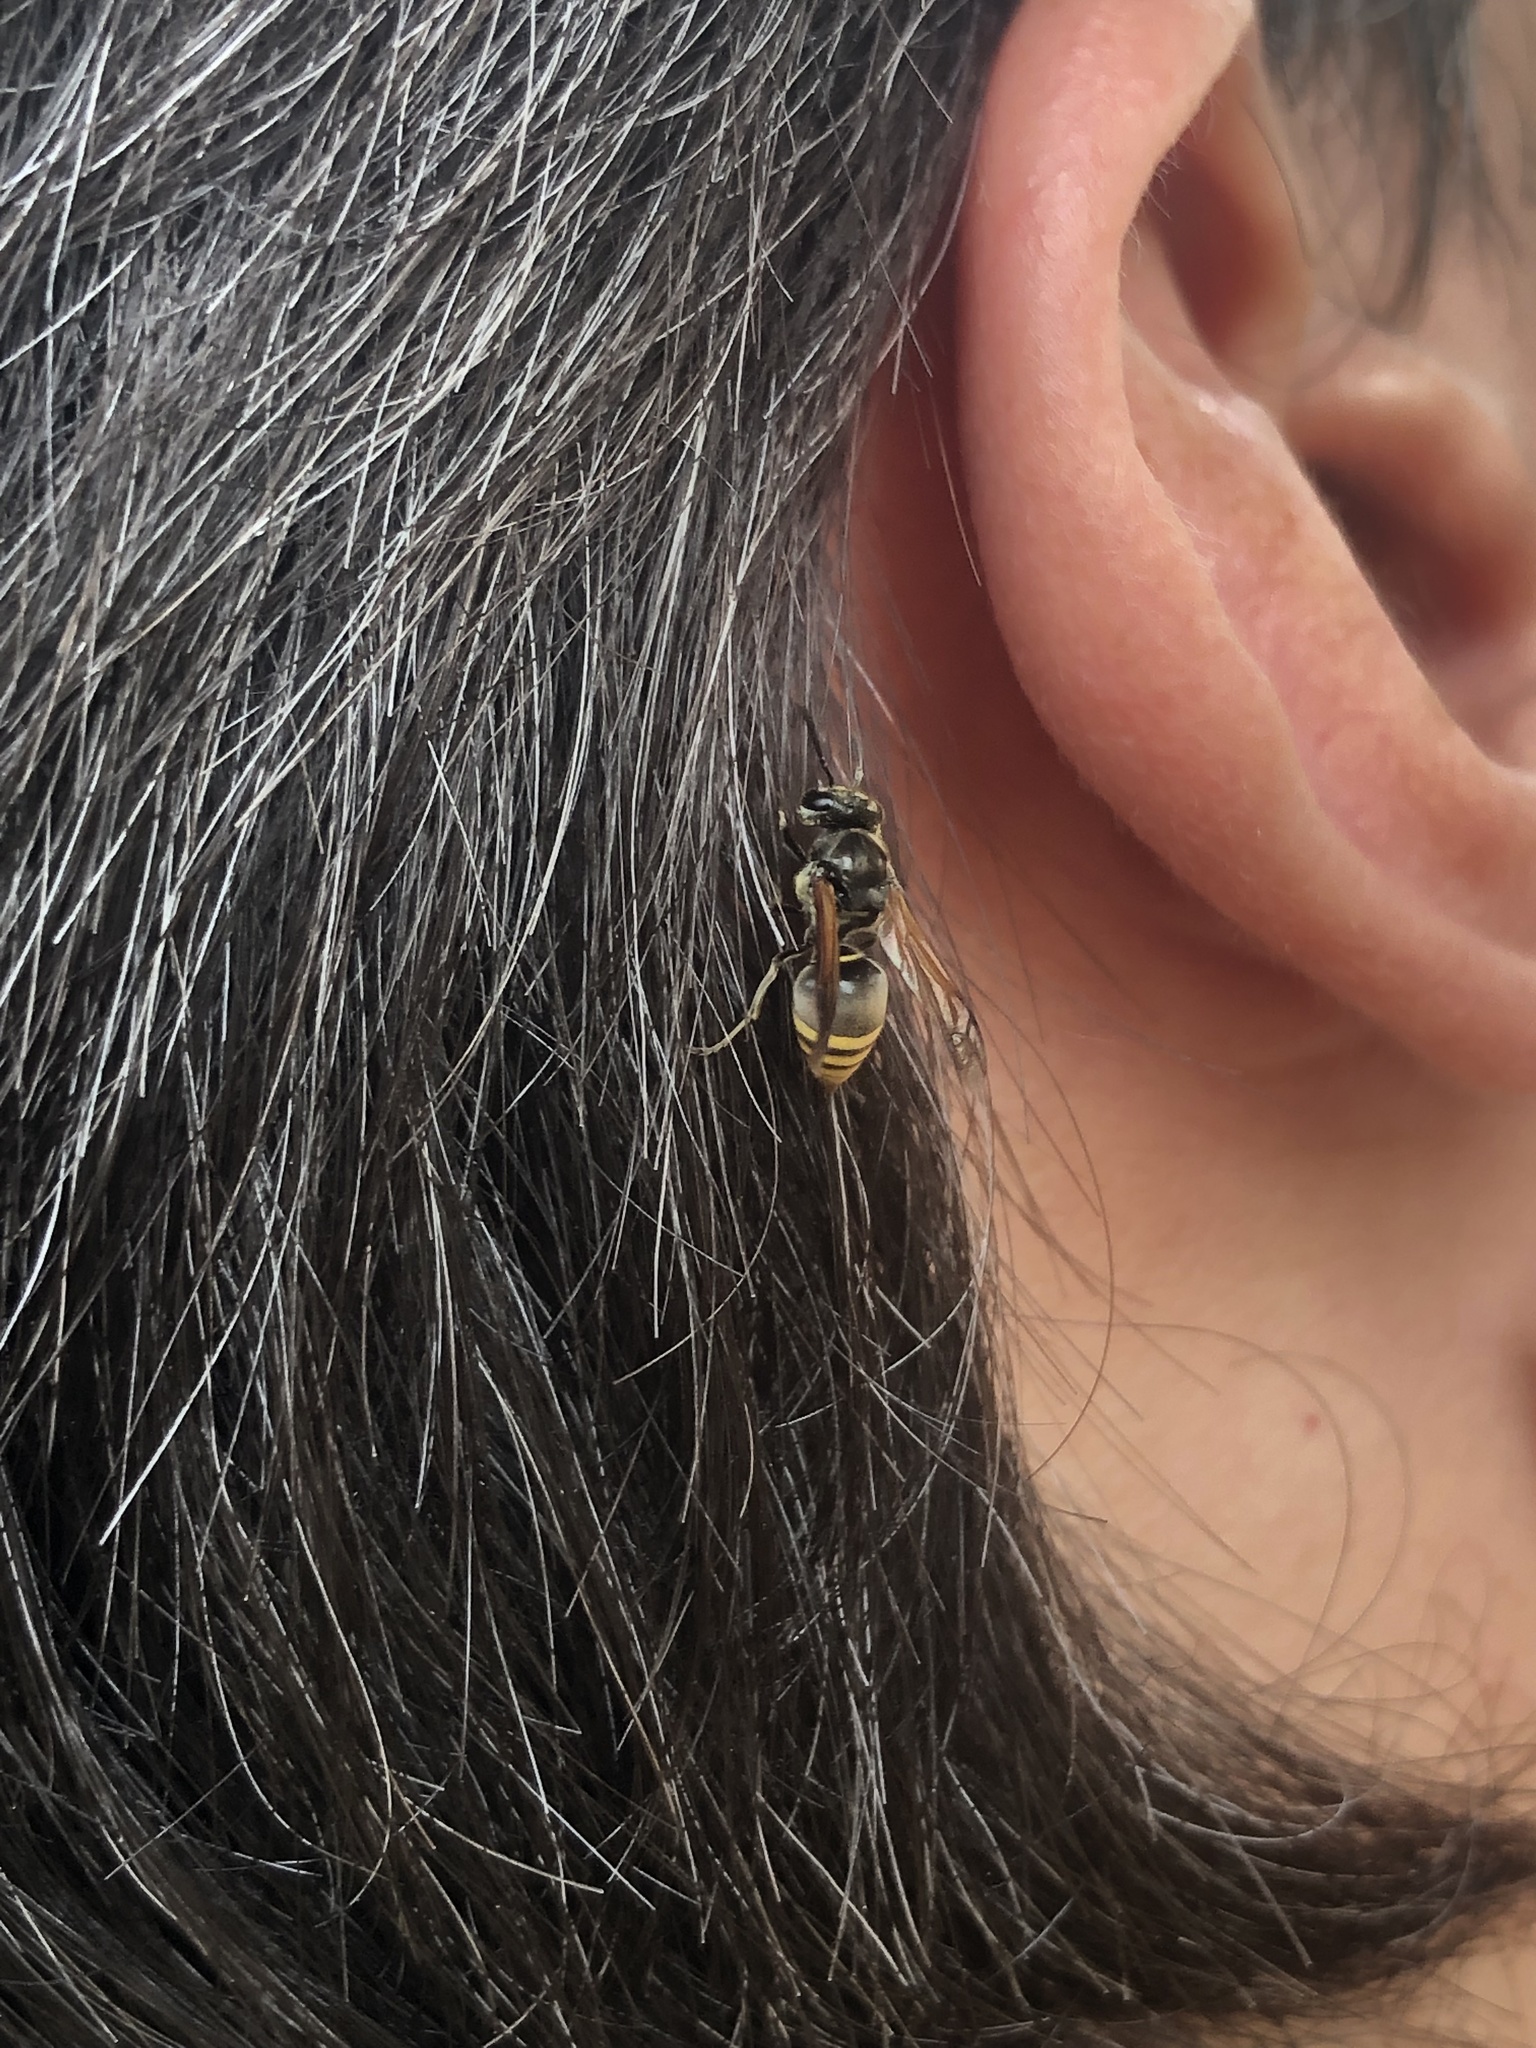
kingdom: Animalia
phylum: Arthropoda
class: Insecta
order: Hymenoptera
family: Vespidae
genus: Brachygastra
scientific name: Brachygastra lecheguana
